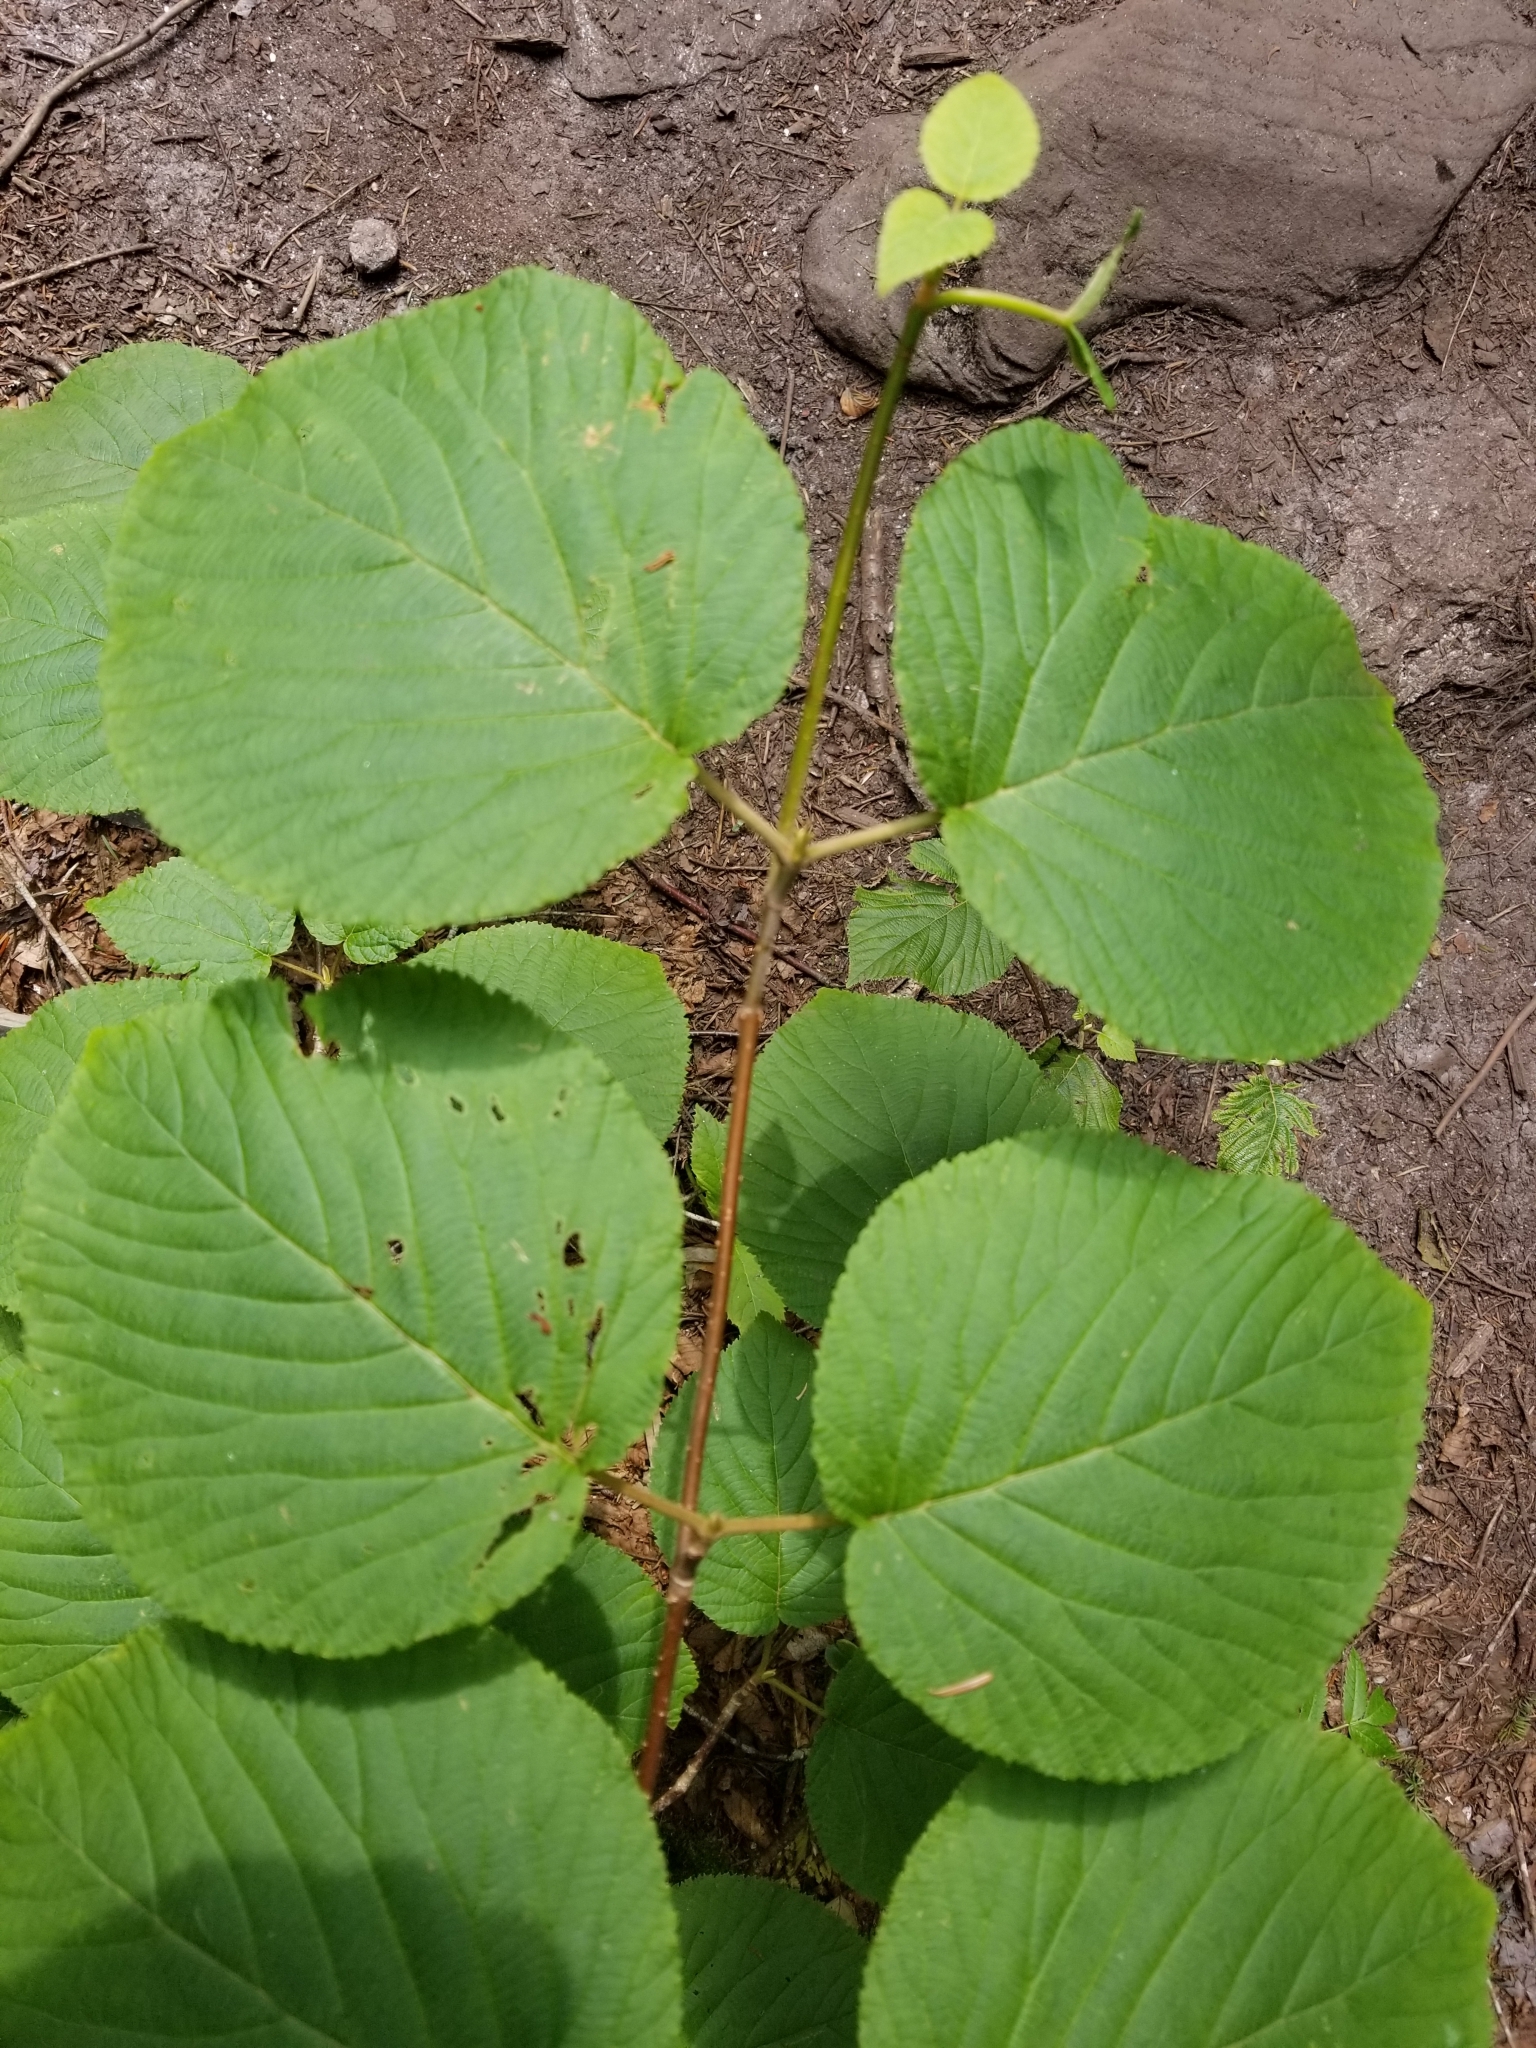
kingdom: Plantae
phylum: Tracheophyta
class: Magnoliopsida
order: Dipsacales
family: Viburnaceae
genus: Viburnum
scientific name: Viburnum lantanoides
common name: Hobblebush
